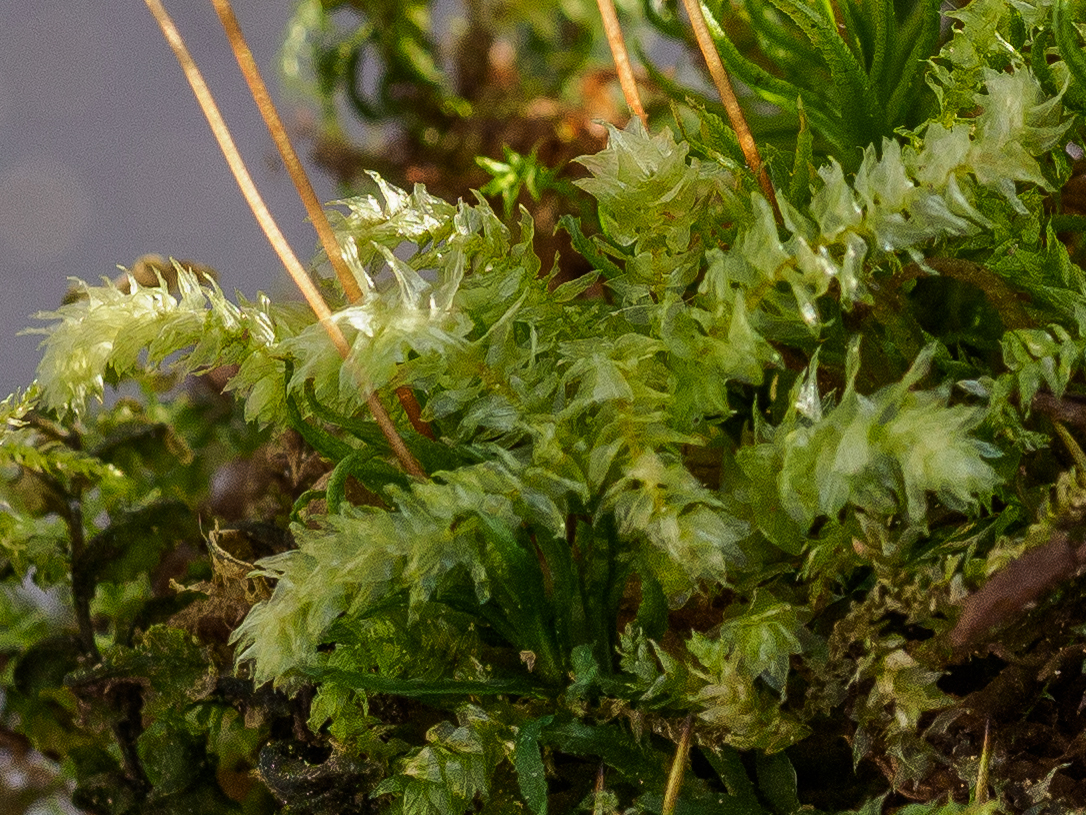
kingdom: Plantae
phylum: Bryophyta
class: Bryopsida
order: Hypnales
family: Brachytheciaceae
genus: Eurhynchium
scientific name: Eurhynchium angustirete
